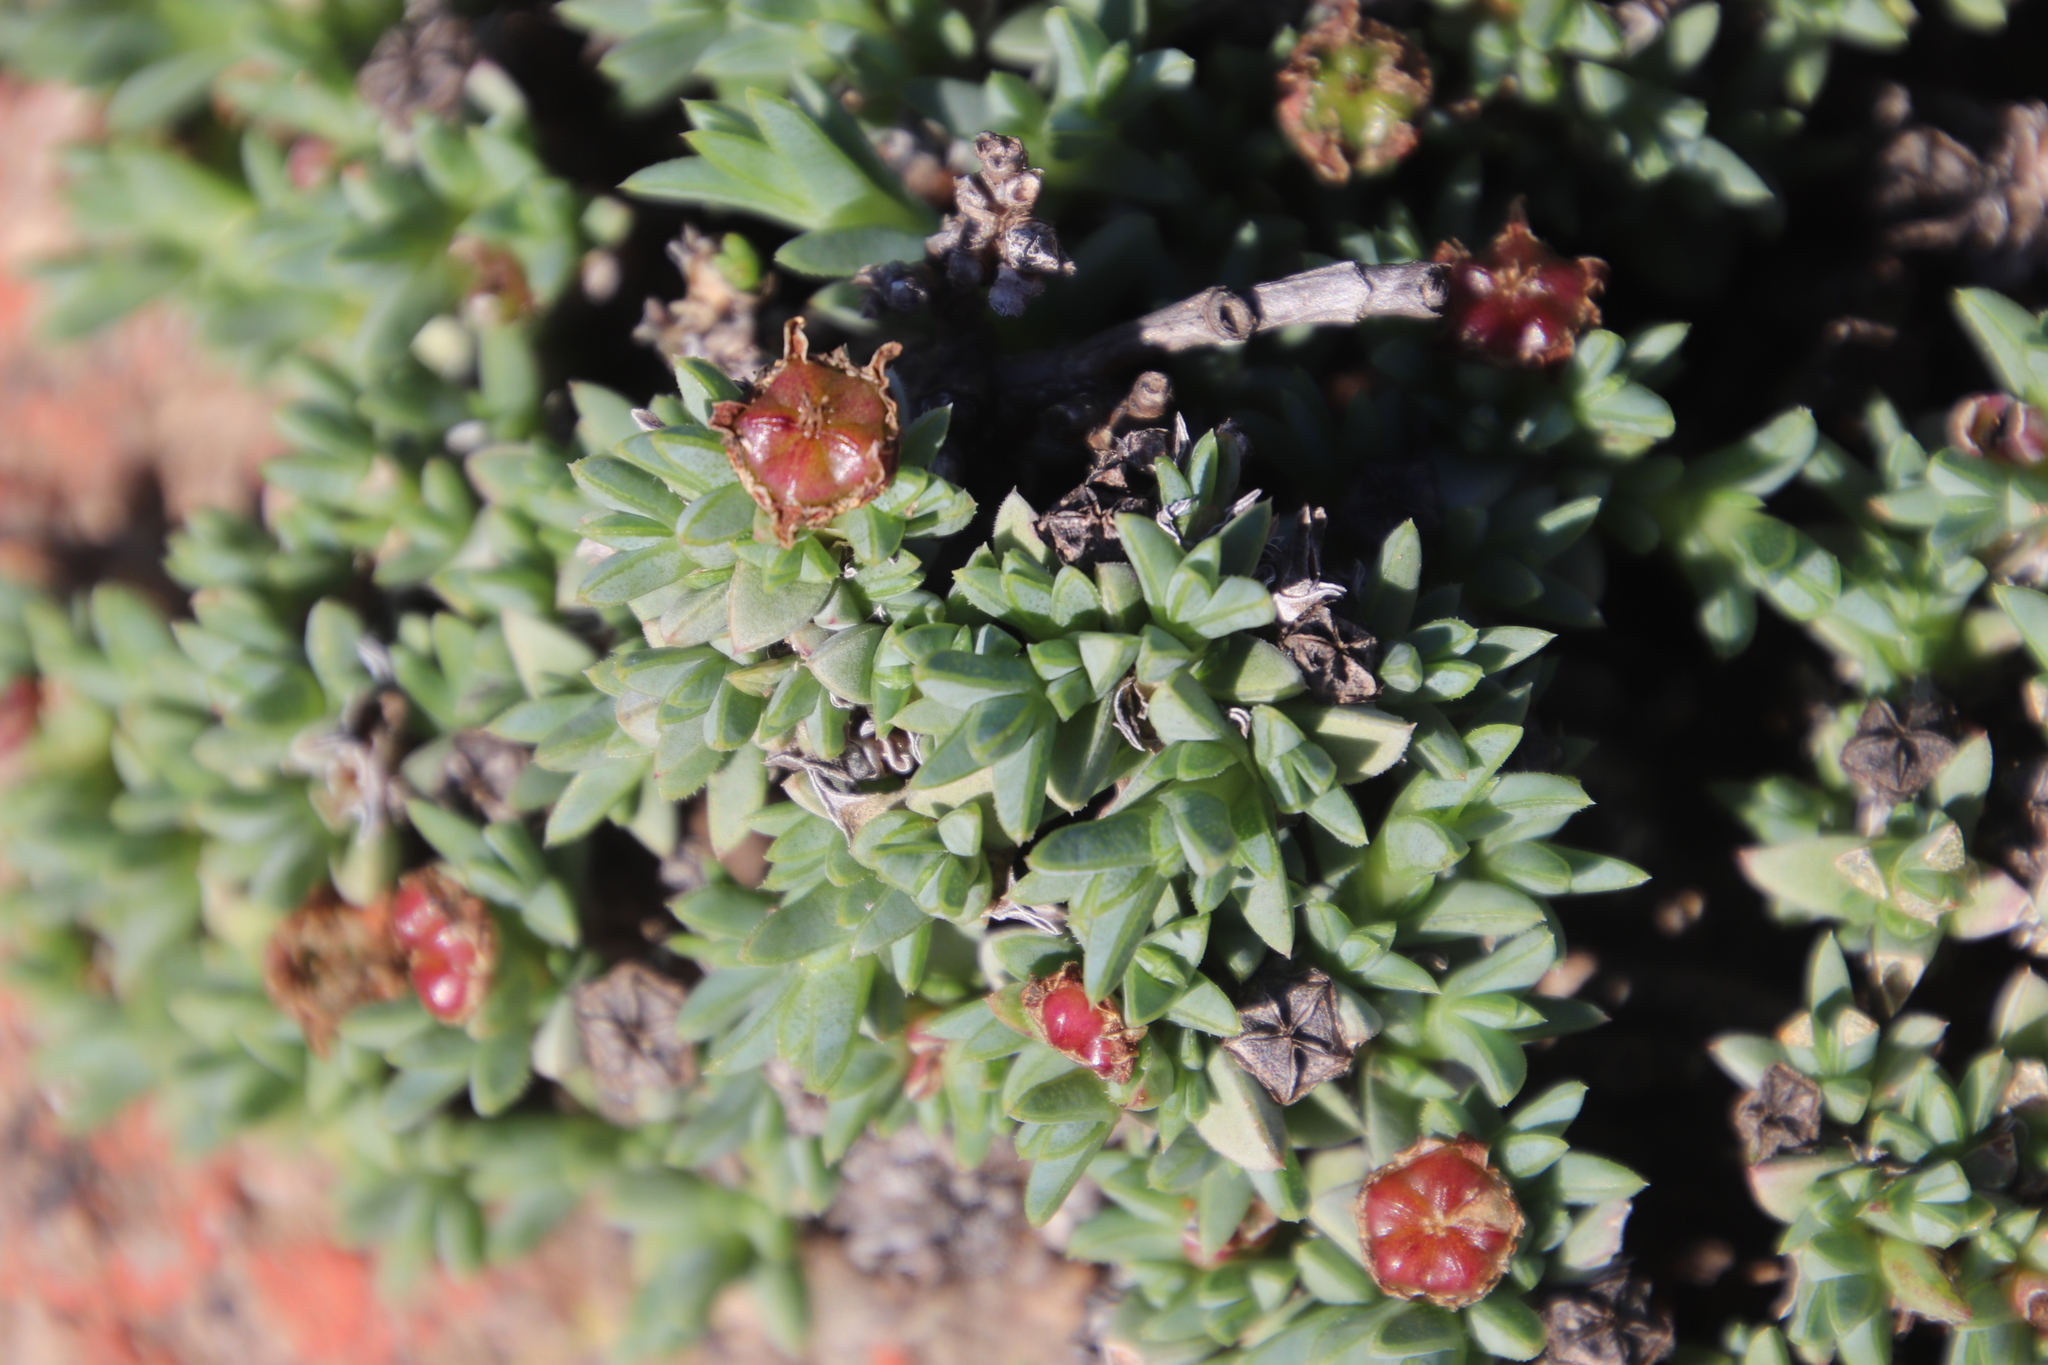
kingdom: Plantae
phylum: Tracheophyta
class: Magnoliopsida
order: Caryophyllales
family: Aizoaceae
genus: Antimima
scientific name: Antimima mucronata
